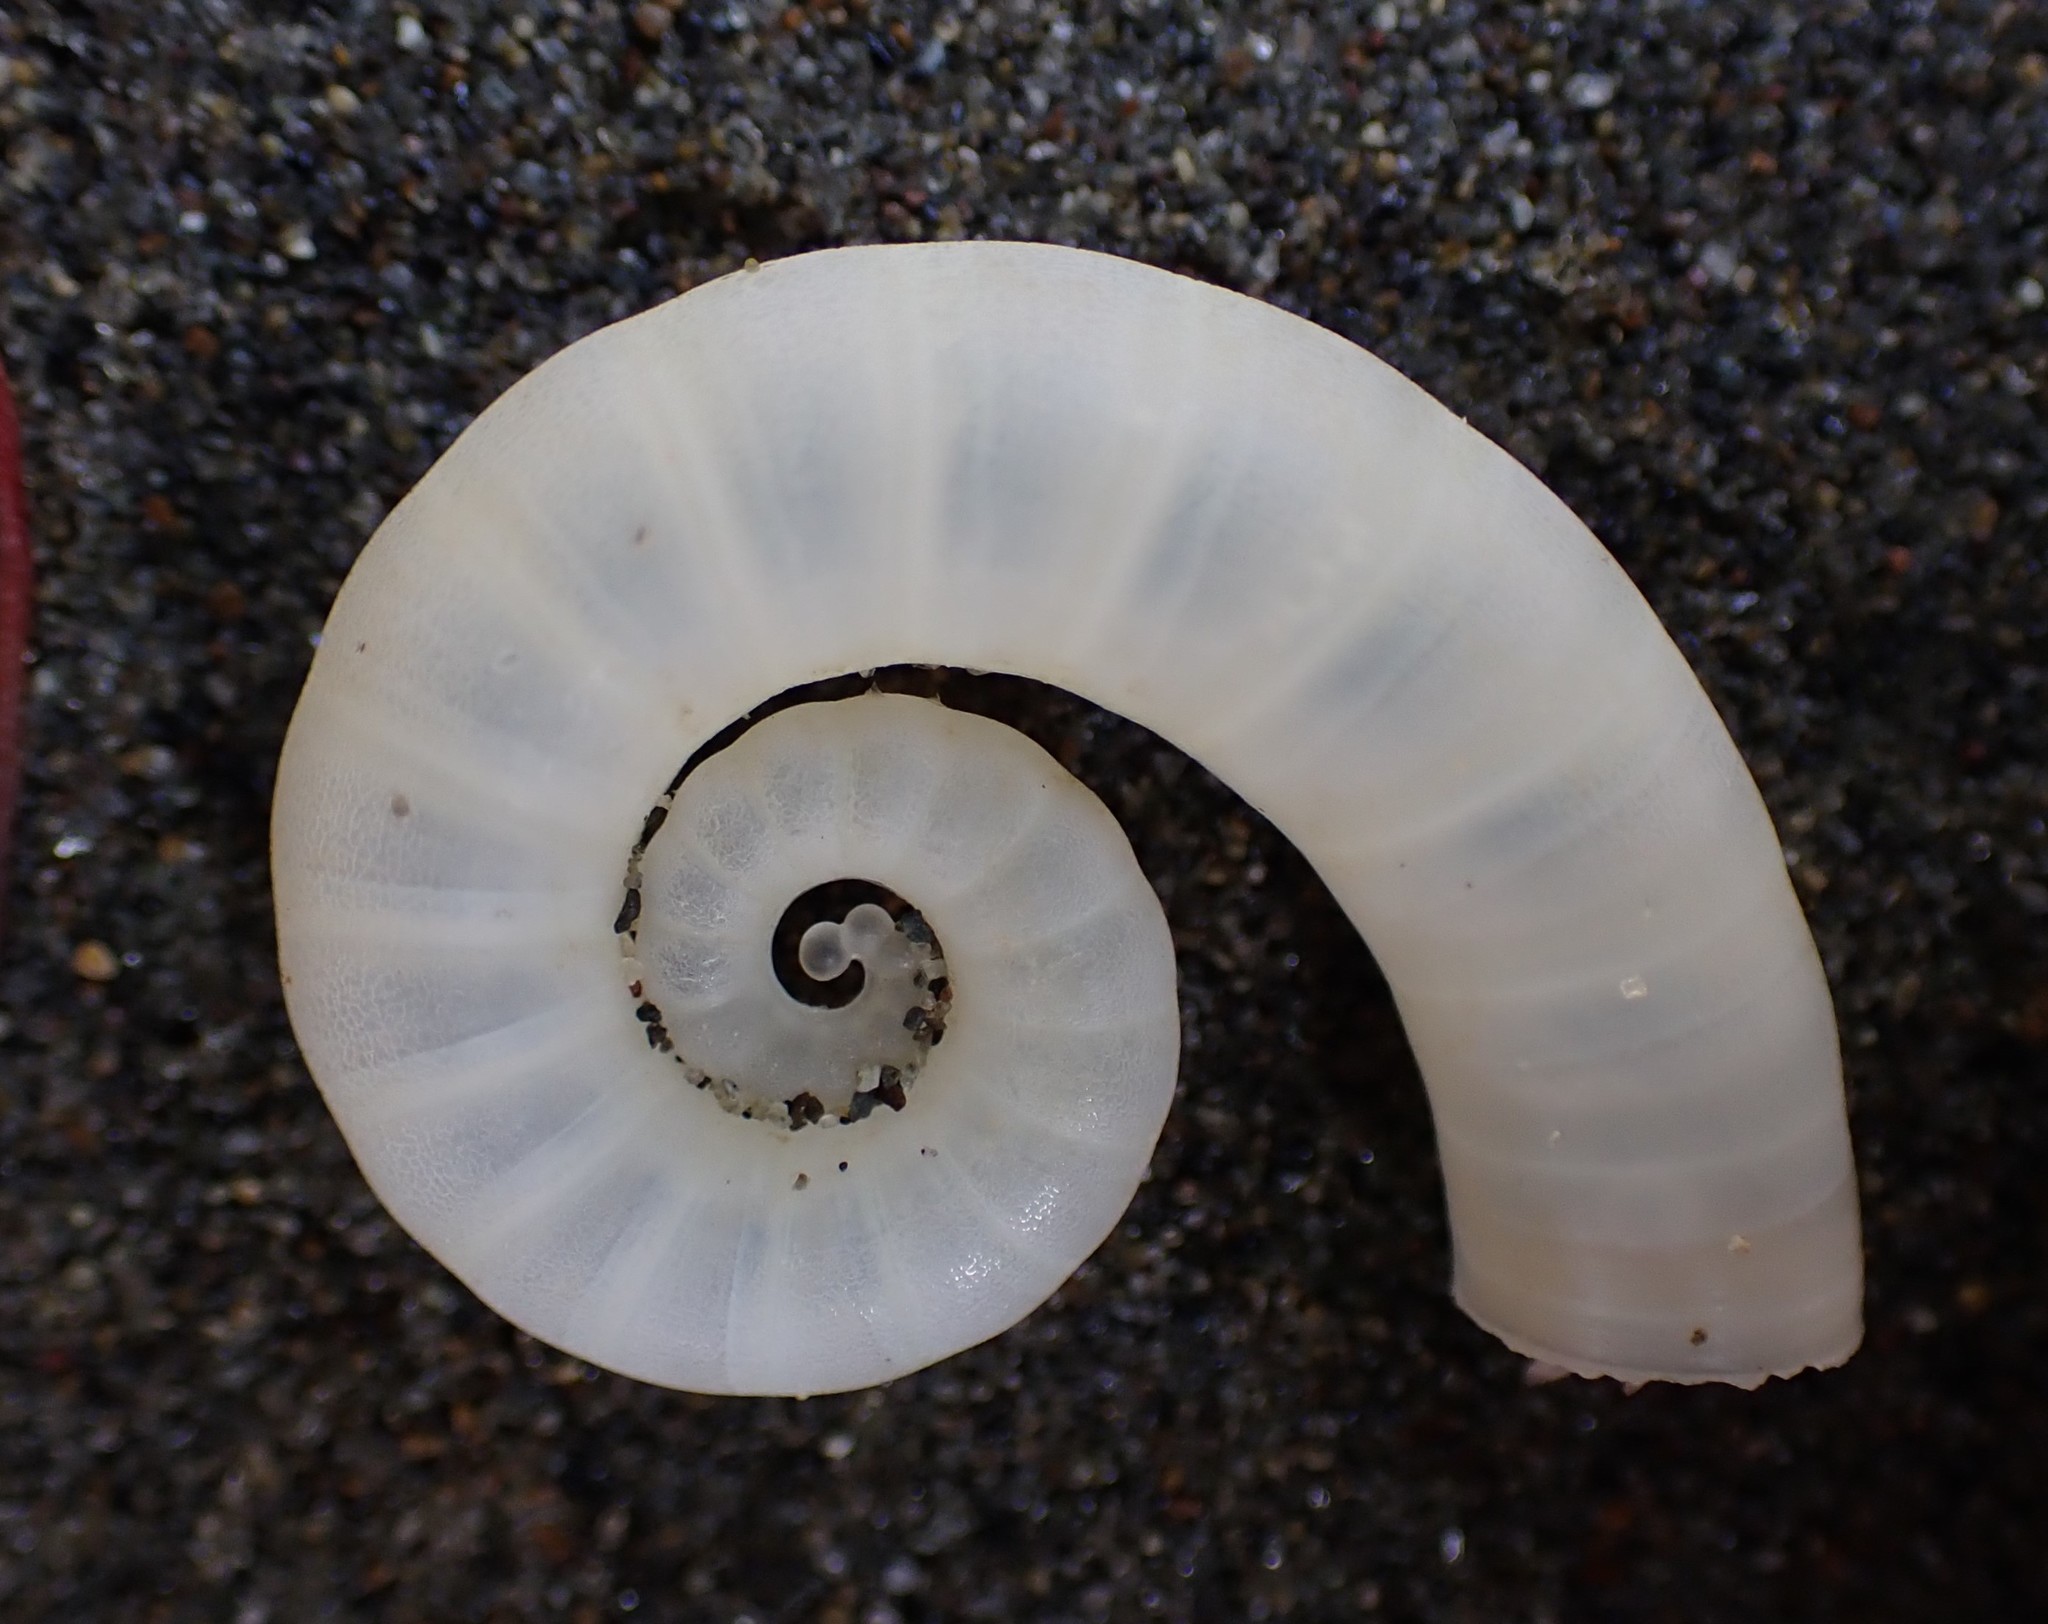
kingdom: Animalia
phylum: Mollusca
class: Cephalopoda
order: Spirulida
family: Spirulidae
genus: Spirula
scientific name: Spirula spirula
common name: Ram's horn squid
